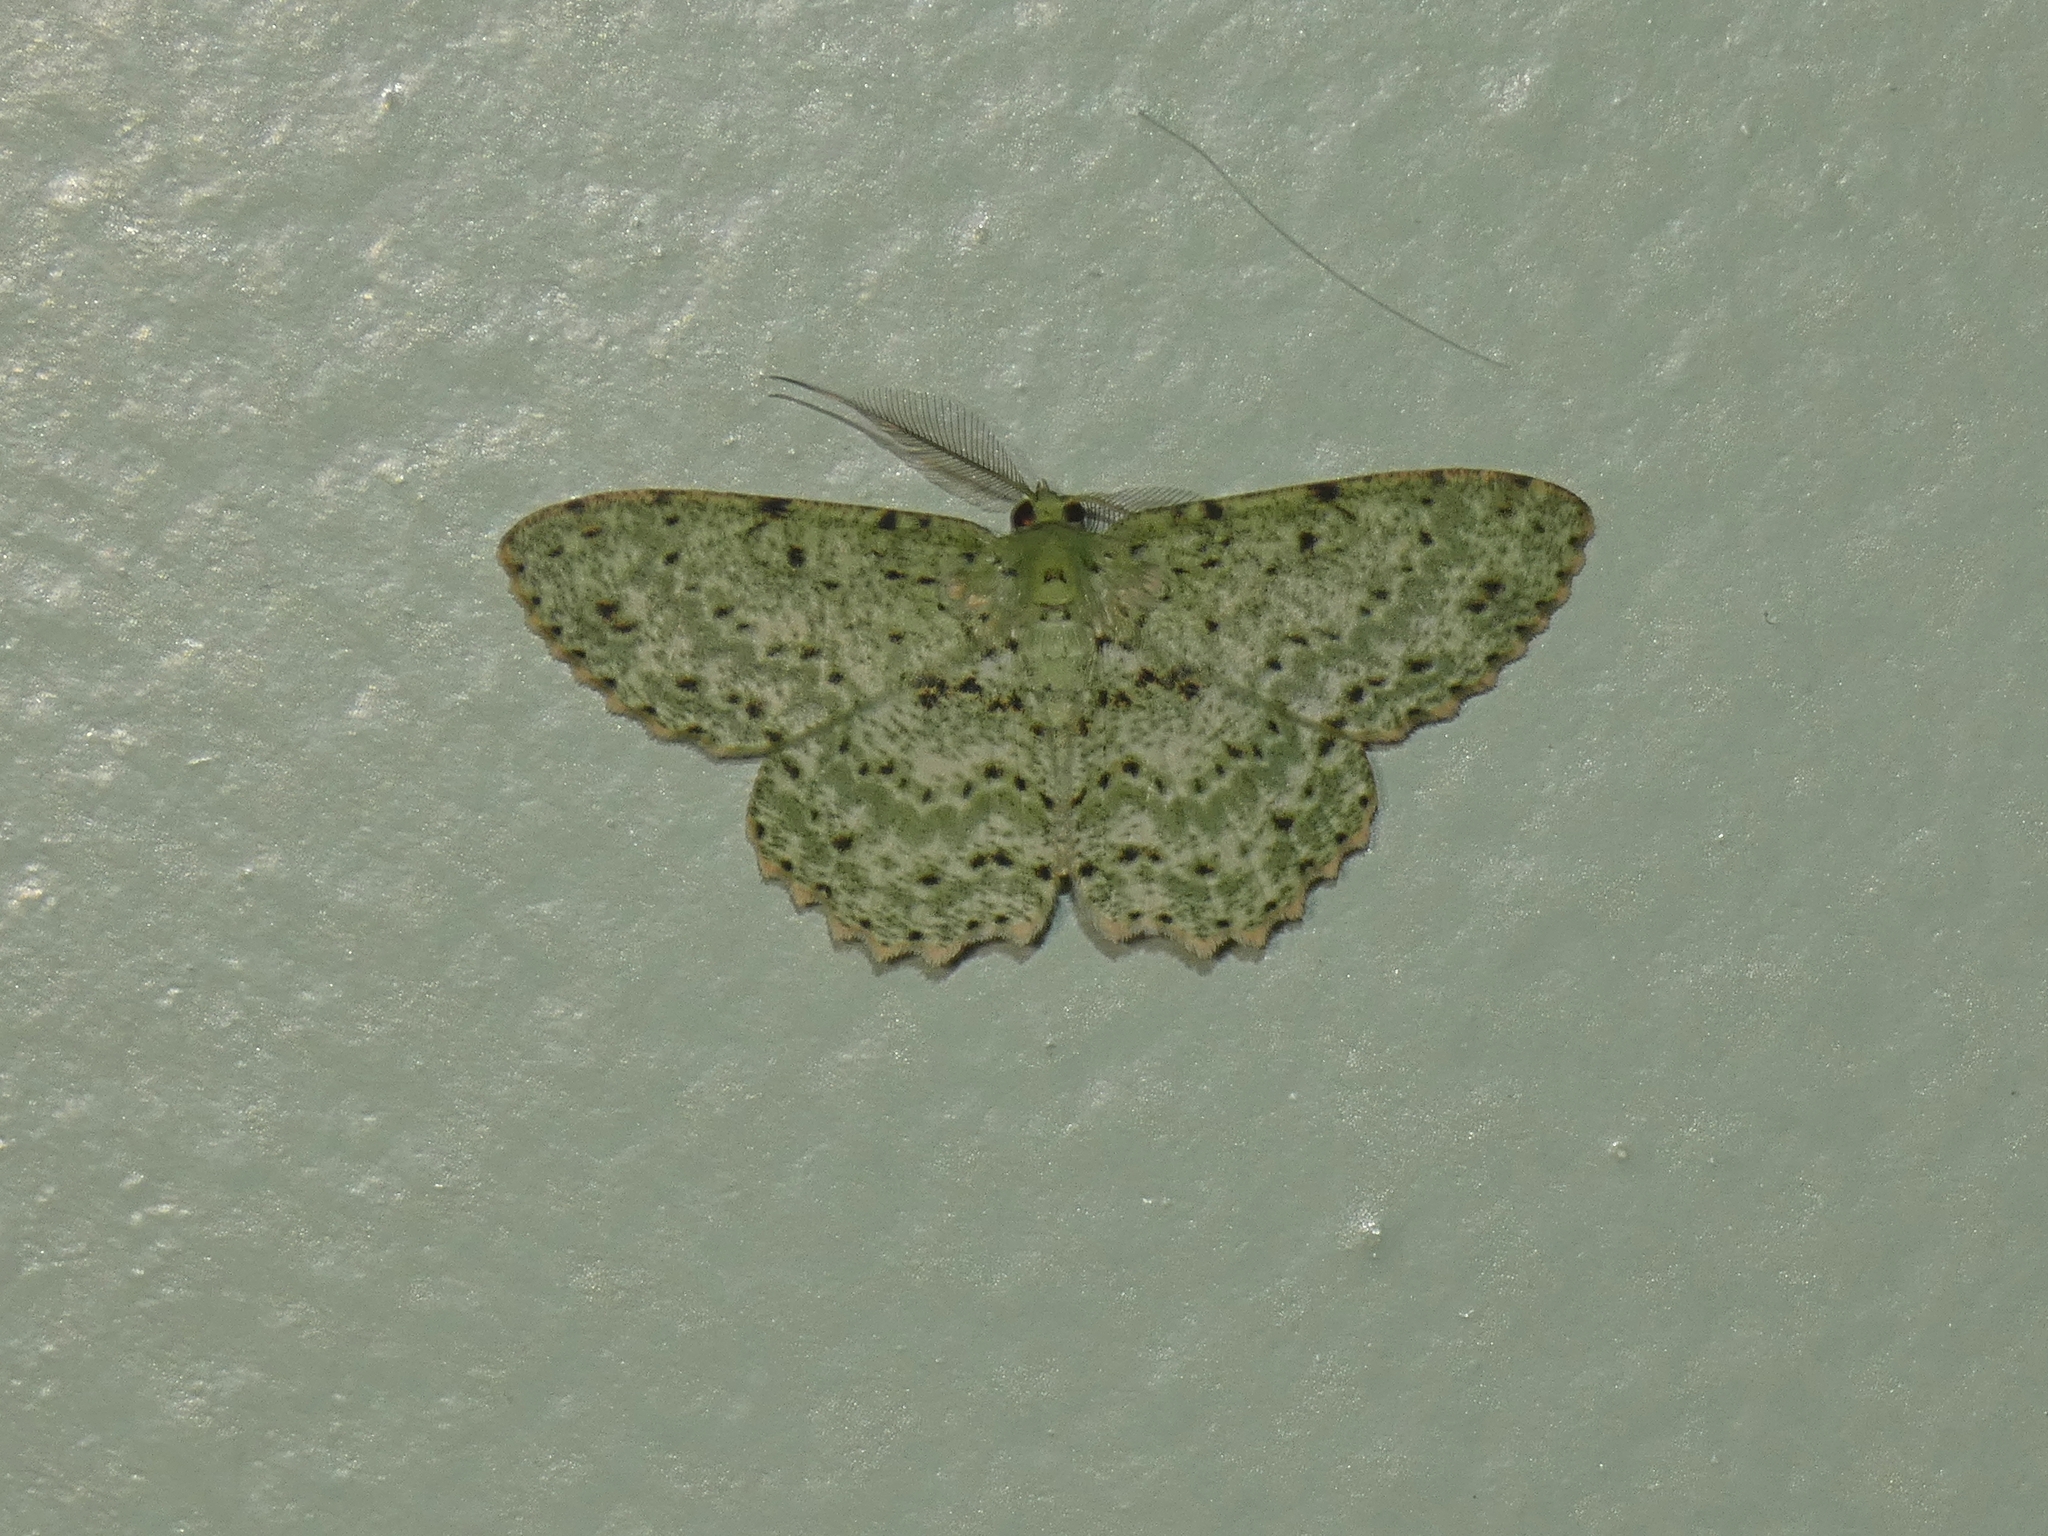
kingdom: Animalia
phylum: Arthropoda
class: Insecta
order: Lepidoptera
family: Geometridae
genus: Catoria
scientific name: Catoria delectaria
